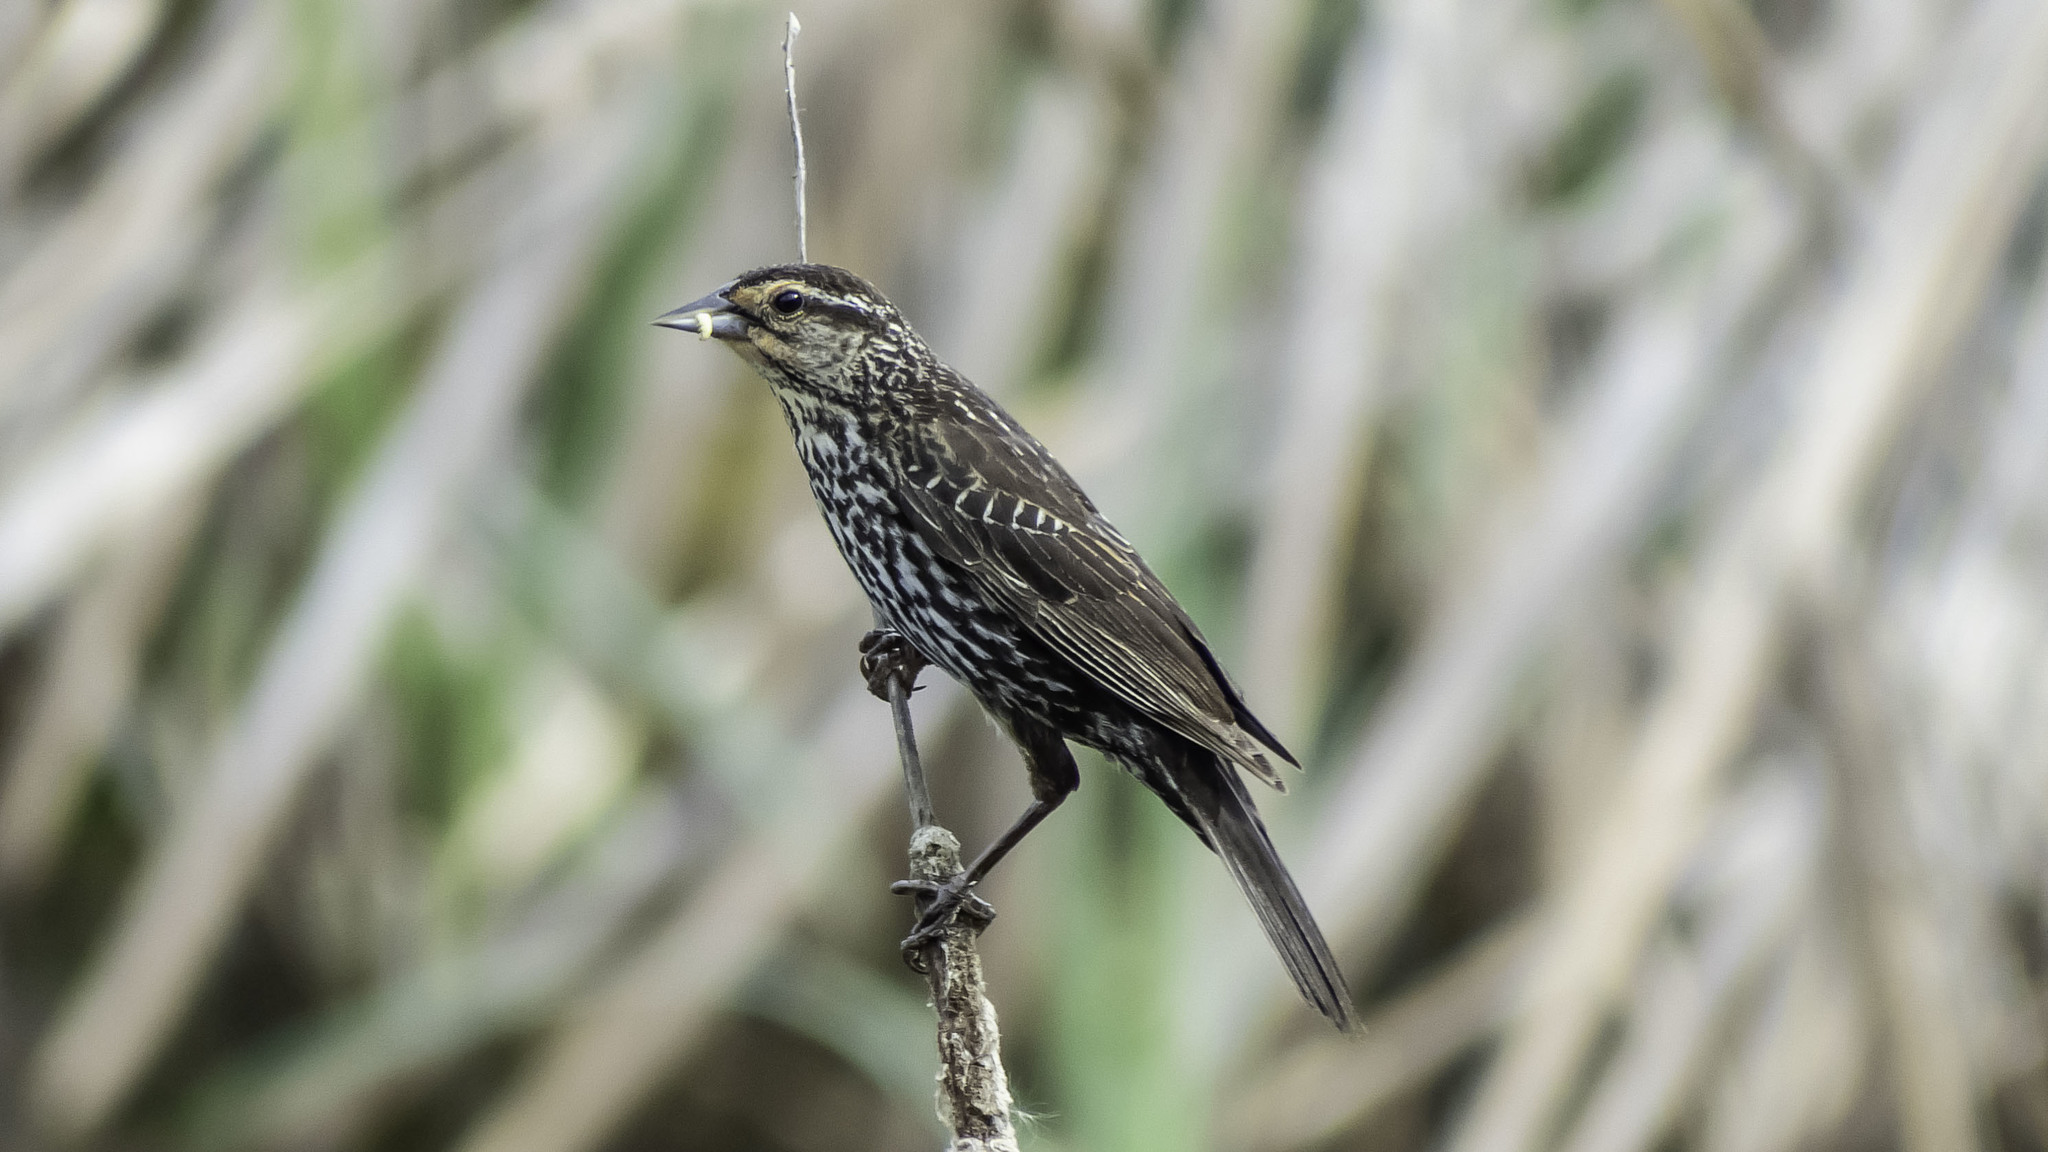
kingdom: Animalia
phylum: Chordata
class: Aves
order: Passeriformes
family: Icteridae
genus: Agelaius
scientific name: Agelaius phoeniceus
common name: Red-winged blackbird
